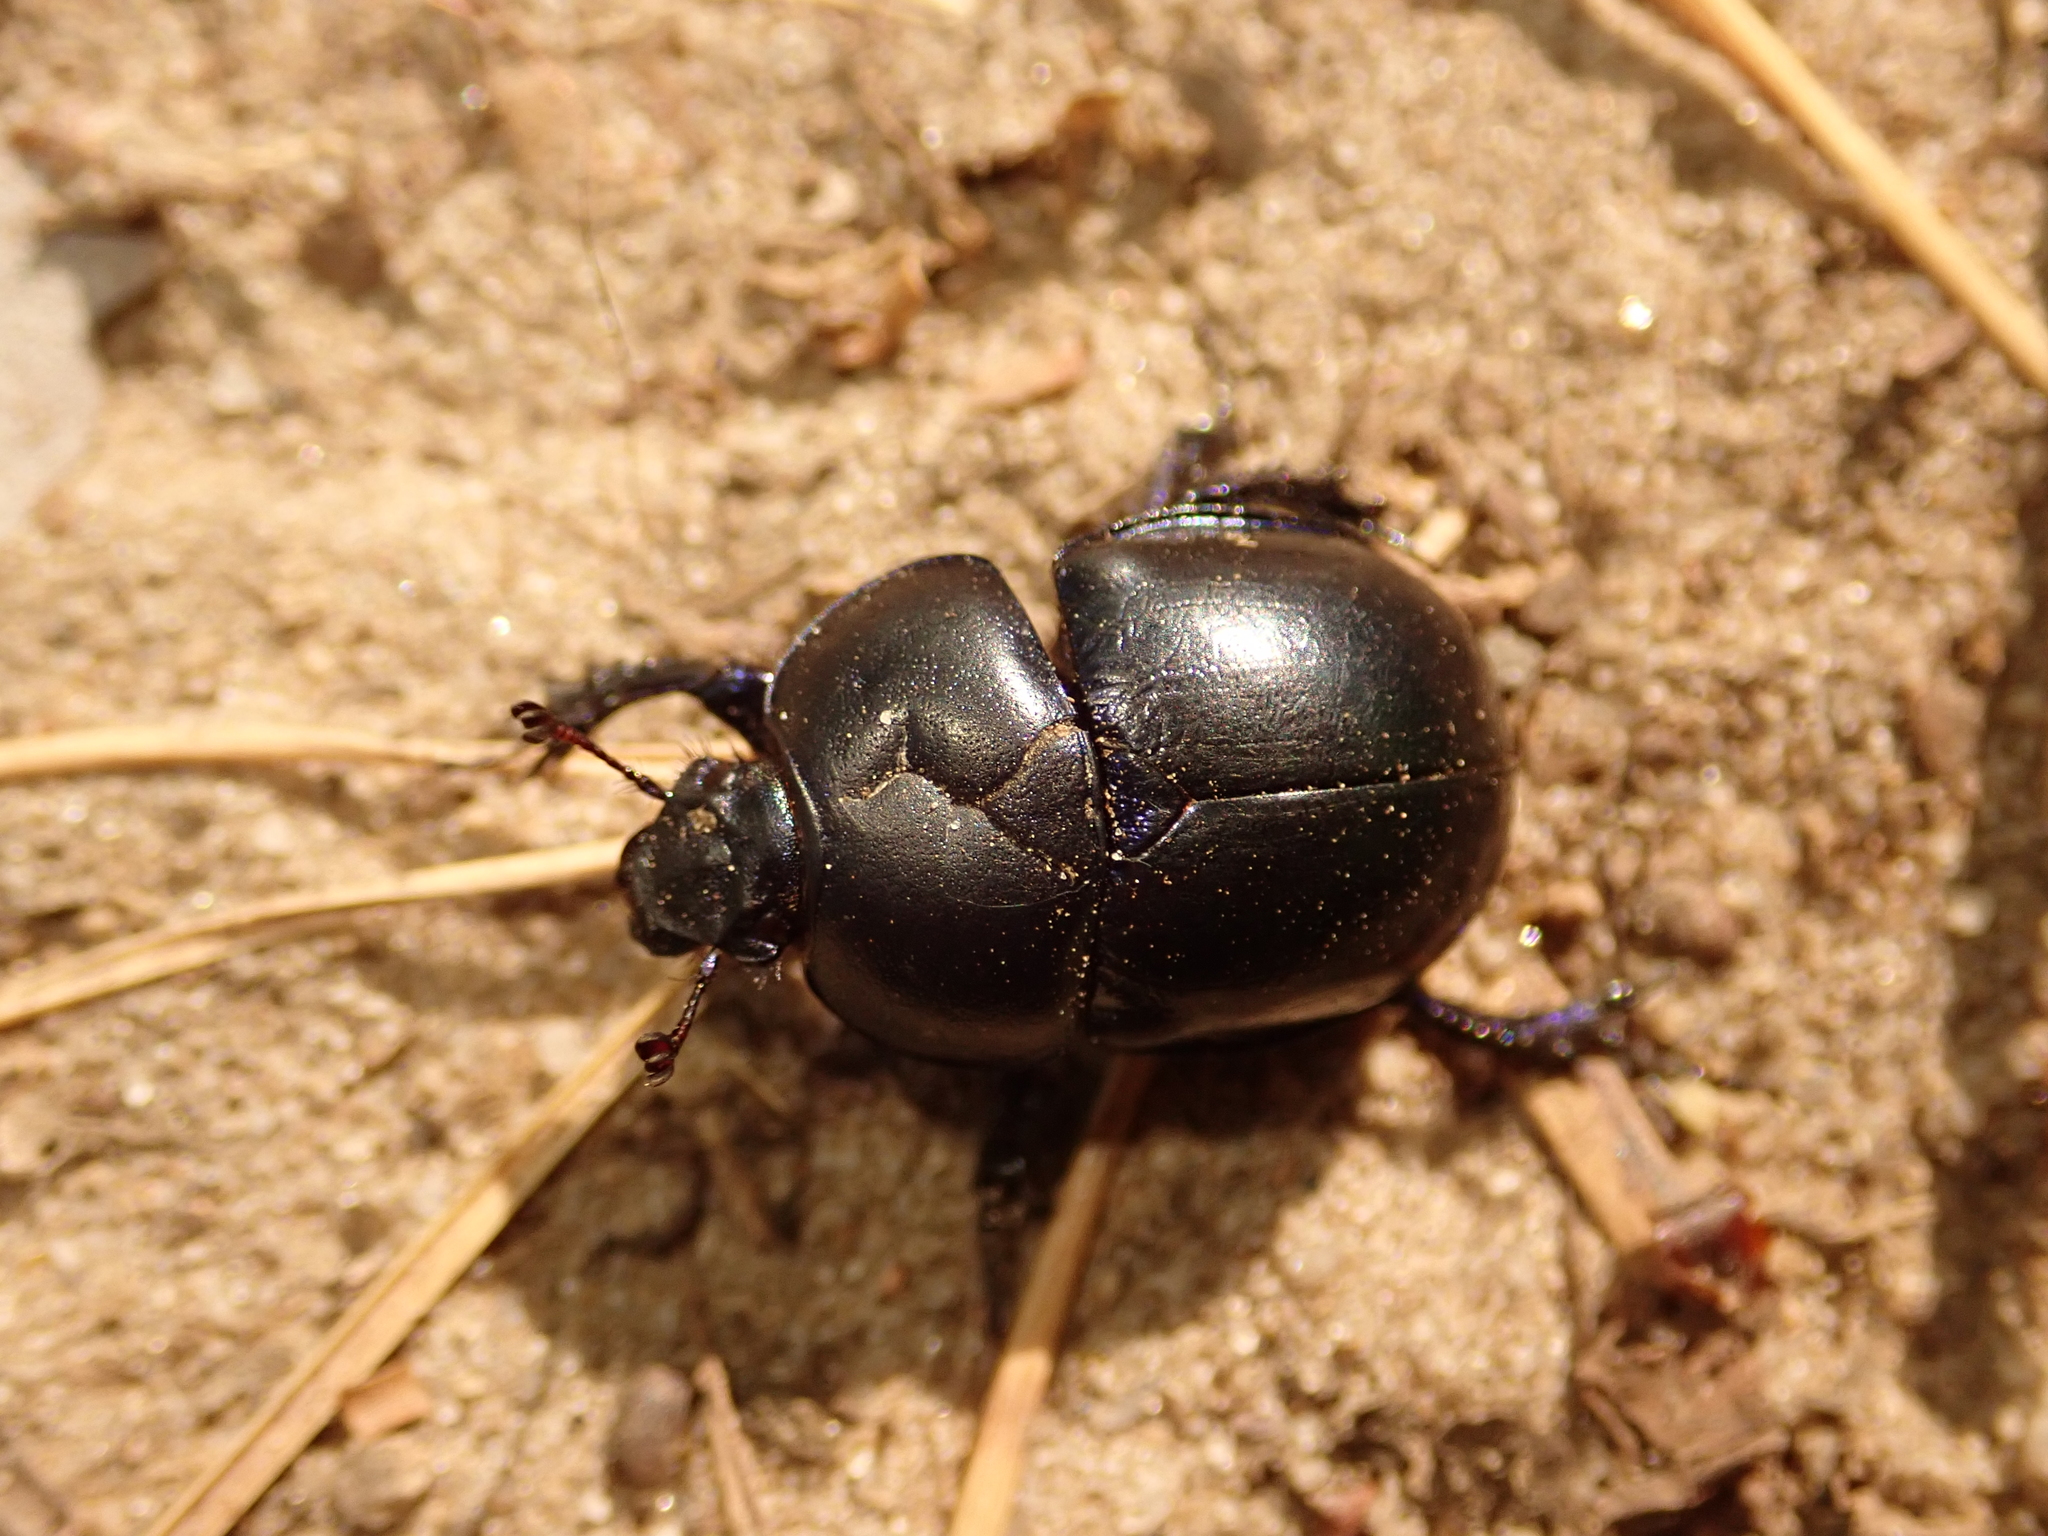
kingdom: Animalia
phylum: Arthropoda
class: Insecta
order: Coleoptera
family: Geotrupidae
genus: Trypocopris
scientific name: Trypocopris vernalis
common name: Spring dumbledor
